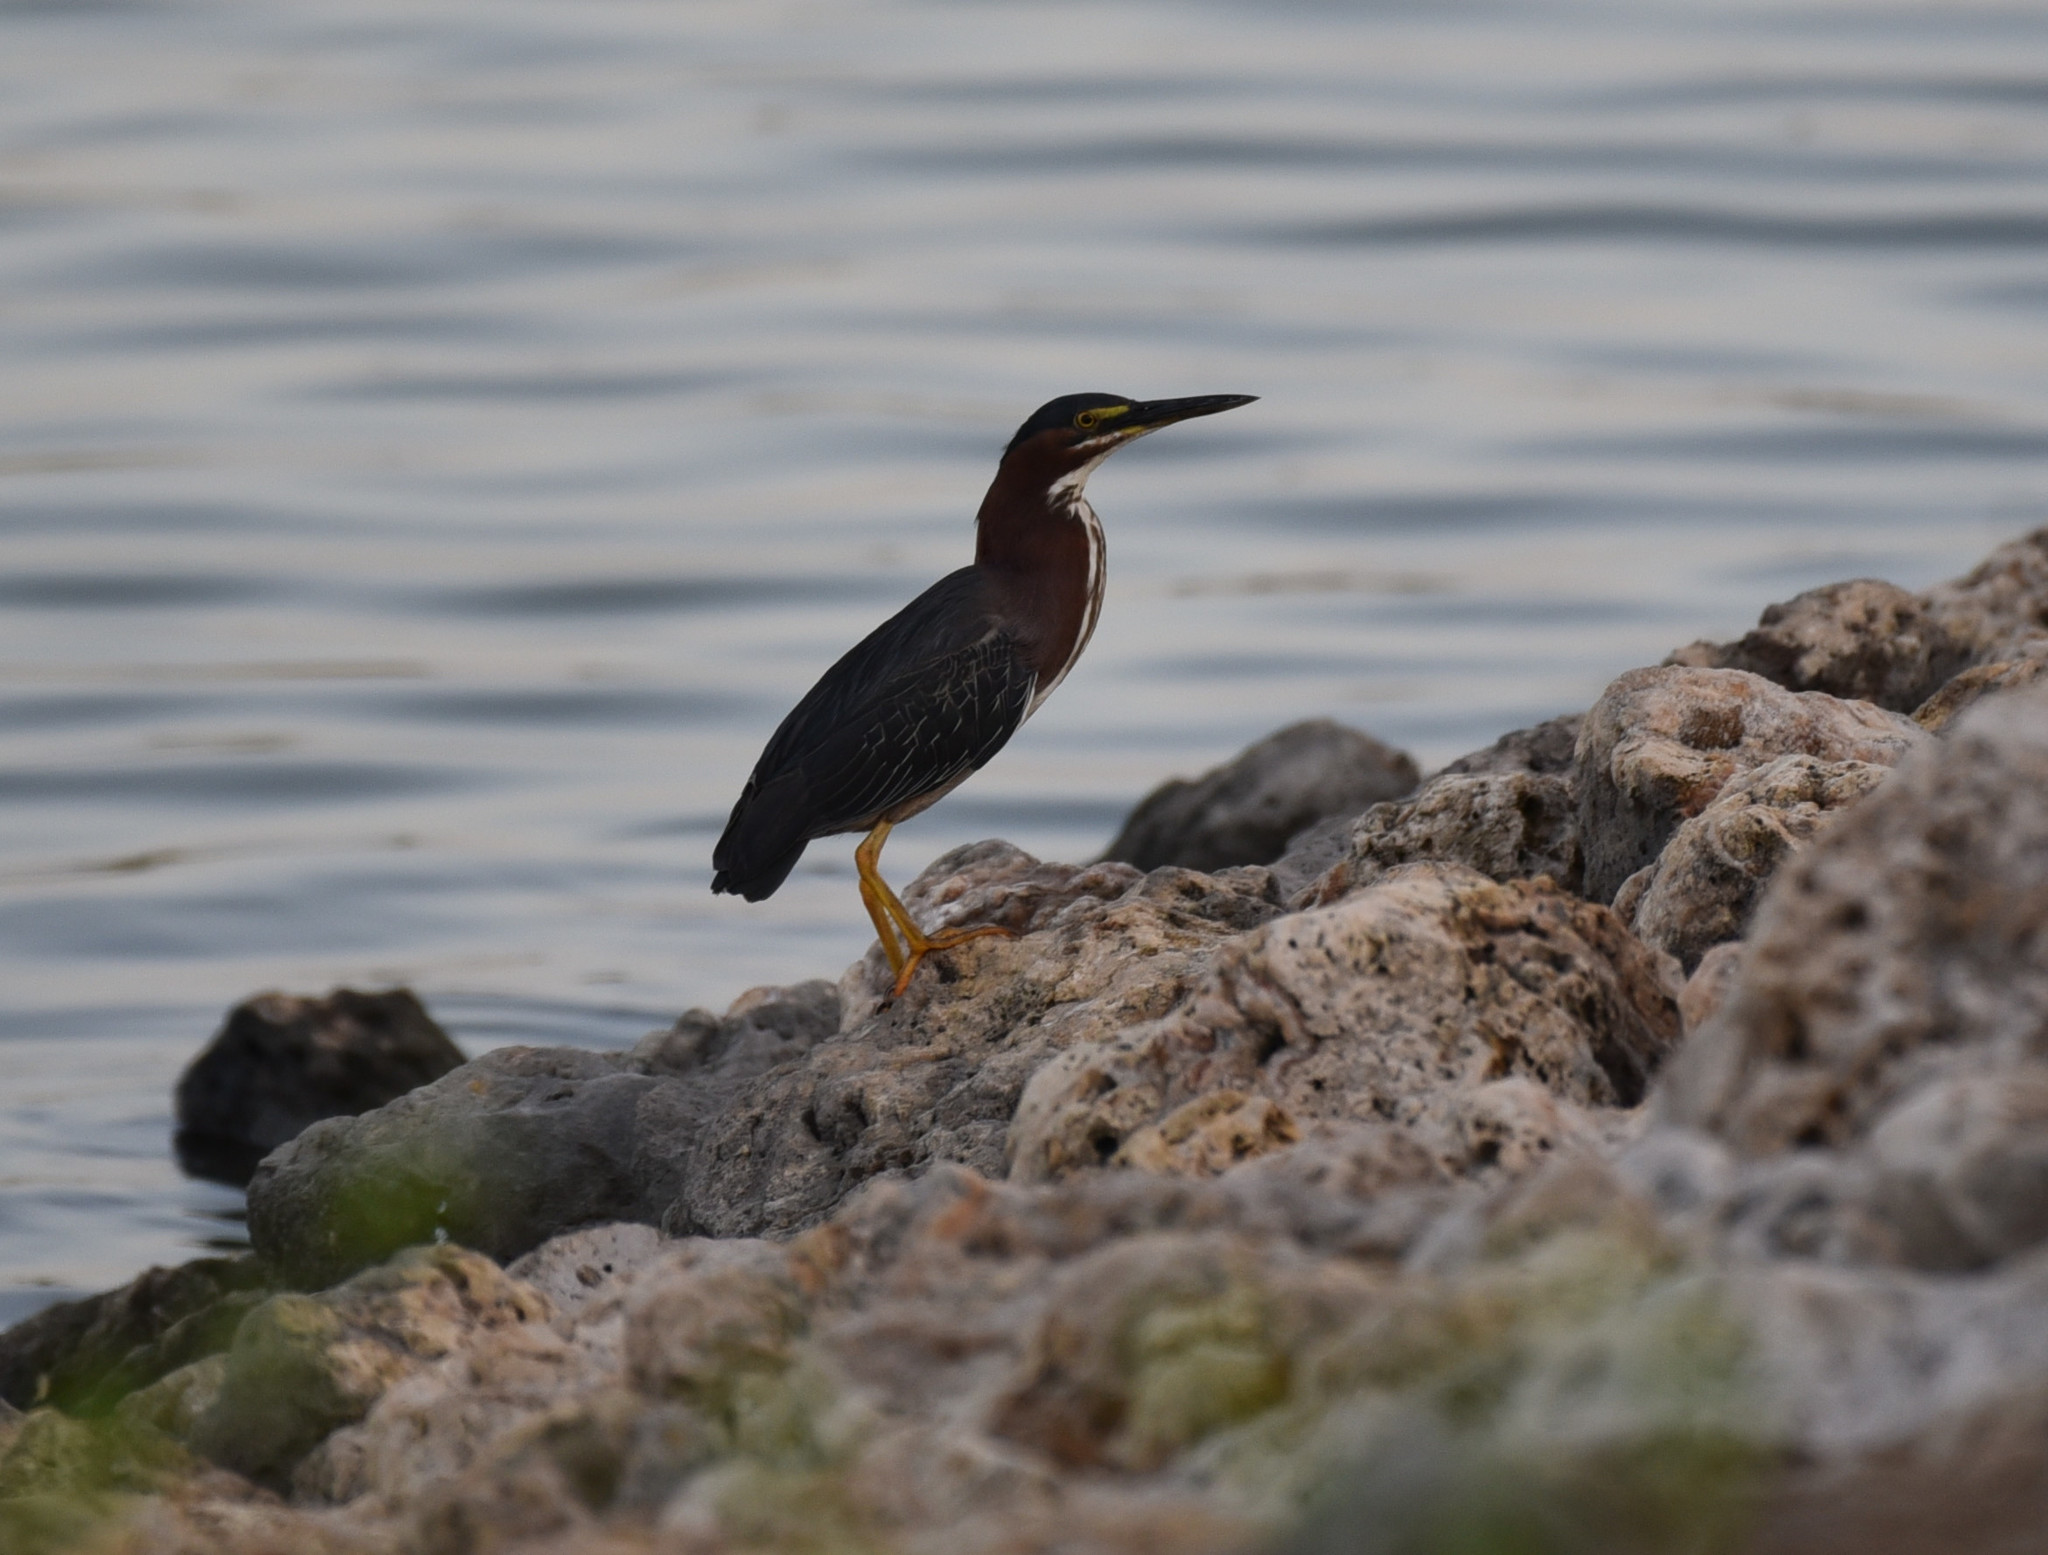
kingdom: Animalia
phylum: Chordata
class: Aves
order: Pelecaniformes
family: Ardeidae
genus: Butorides
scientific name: Butorides virescens
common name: Green heron
